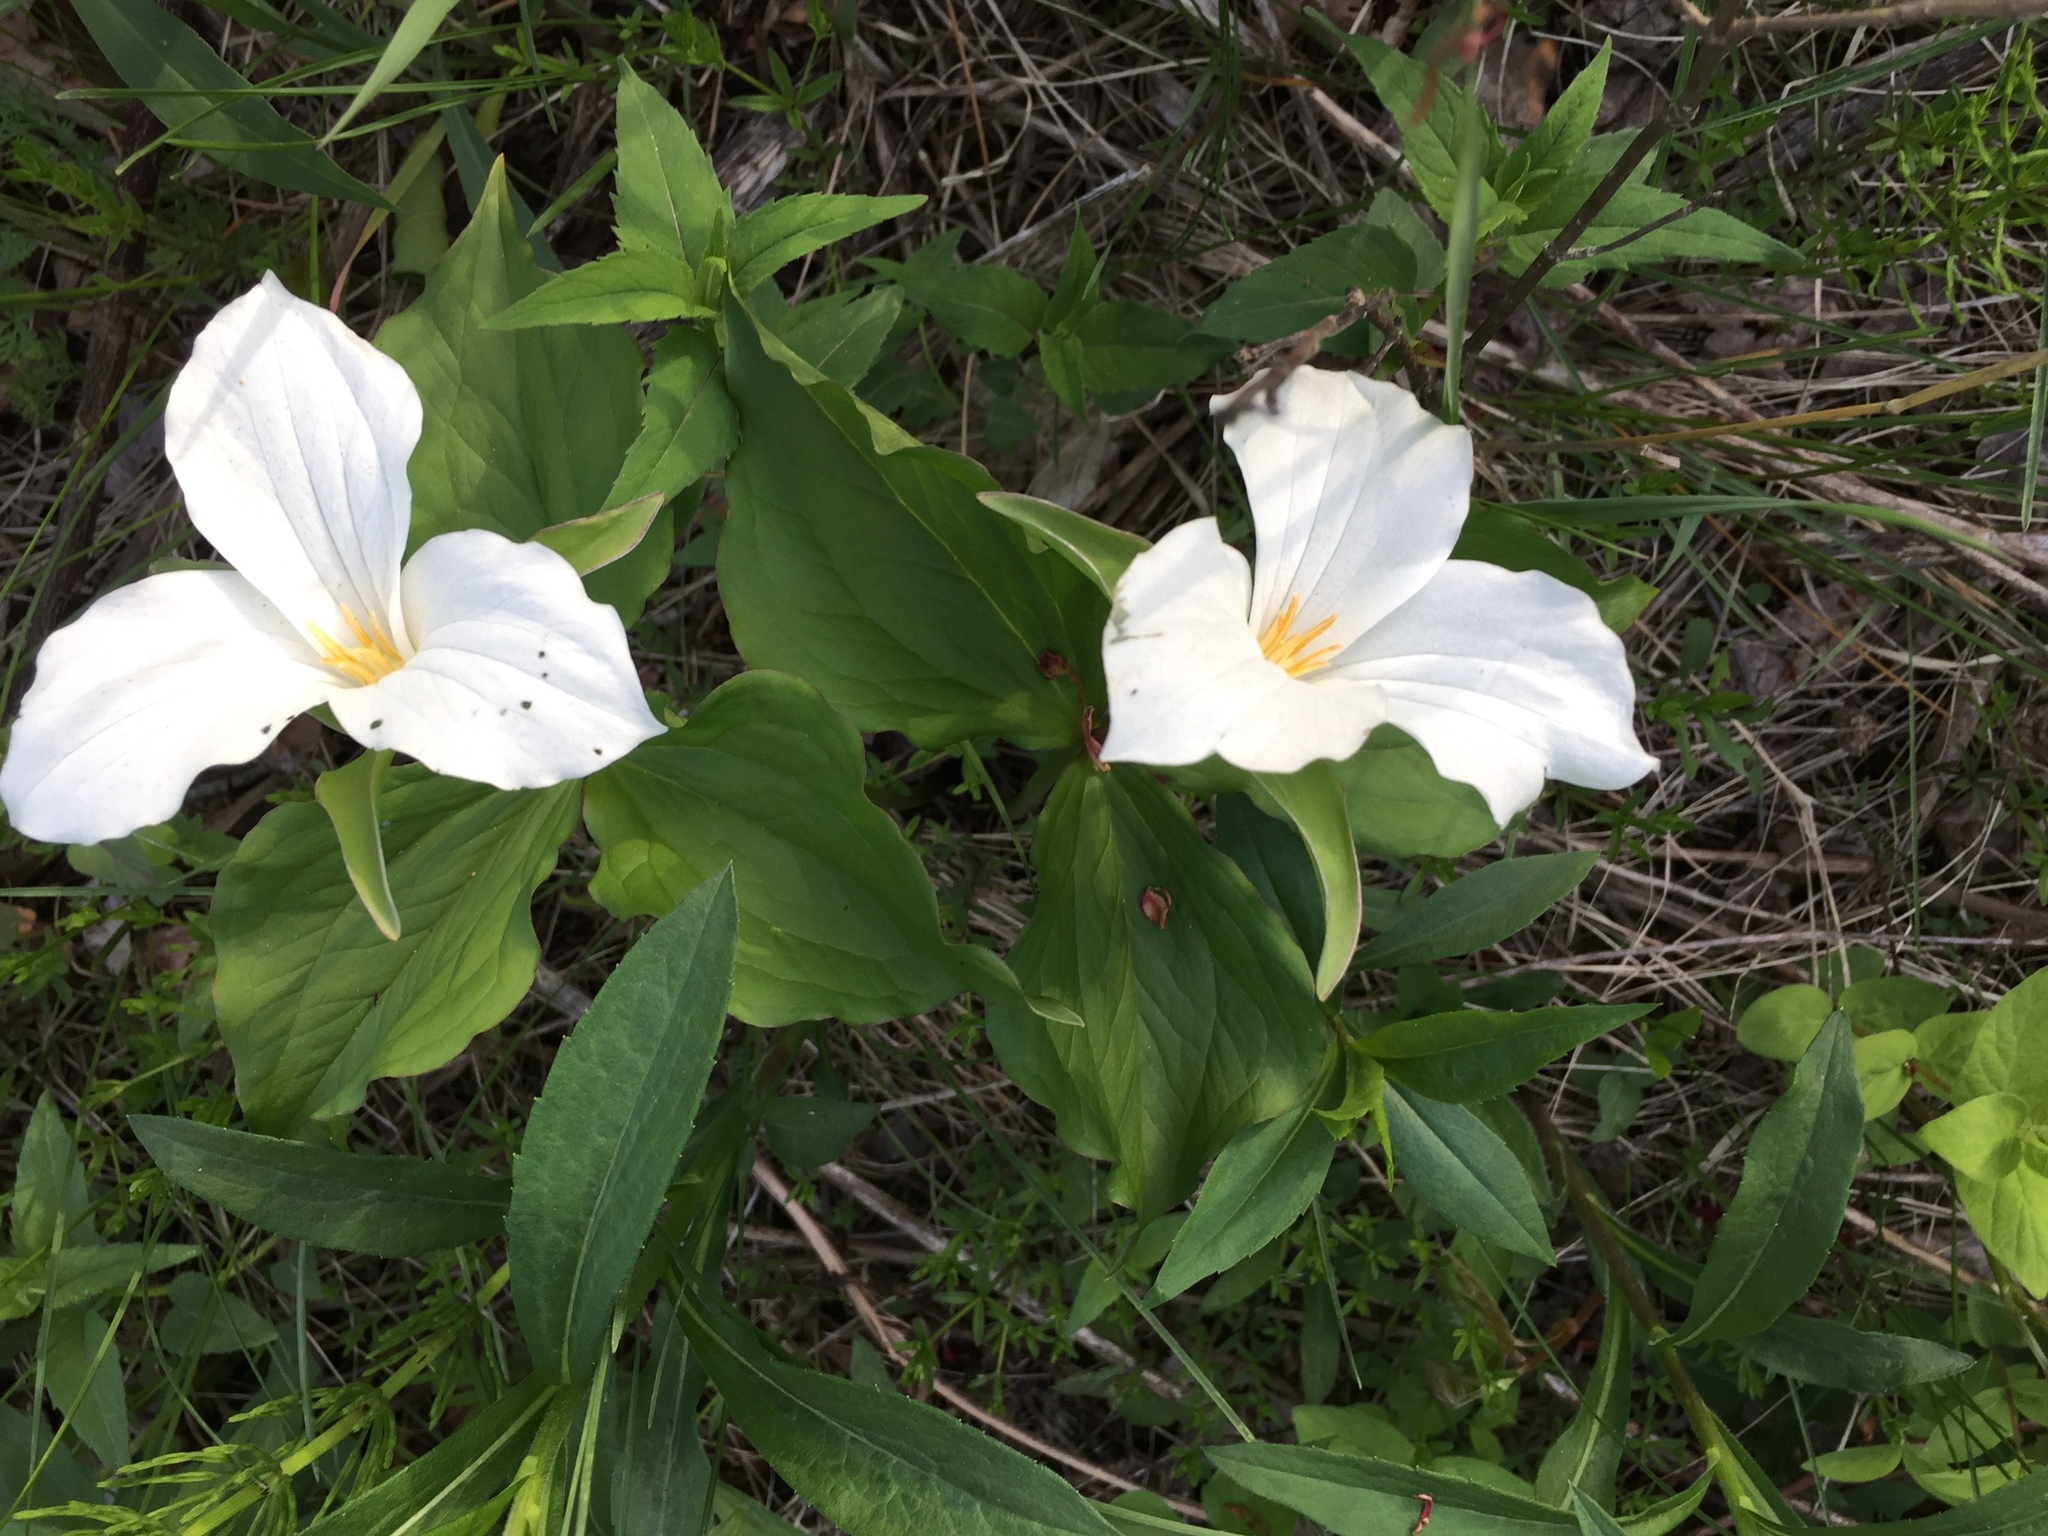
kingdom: Plantae
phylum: Tracheophyta
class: Liliopsida
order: Liliales
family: Melanthiaceae
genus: Trillium
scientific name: Trillium grandiflorum
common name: Great white trillium
